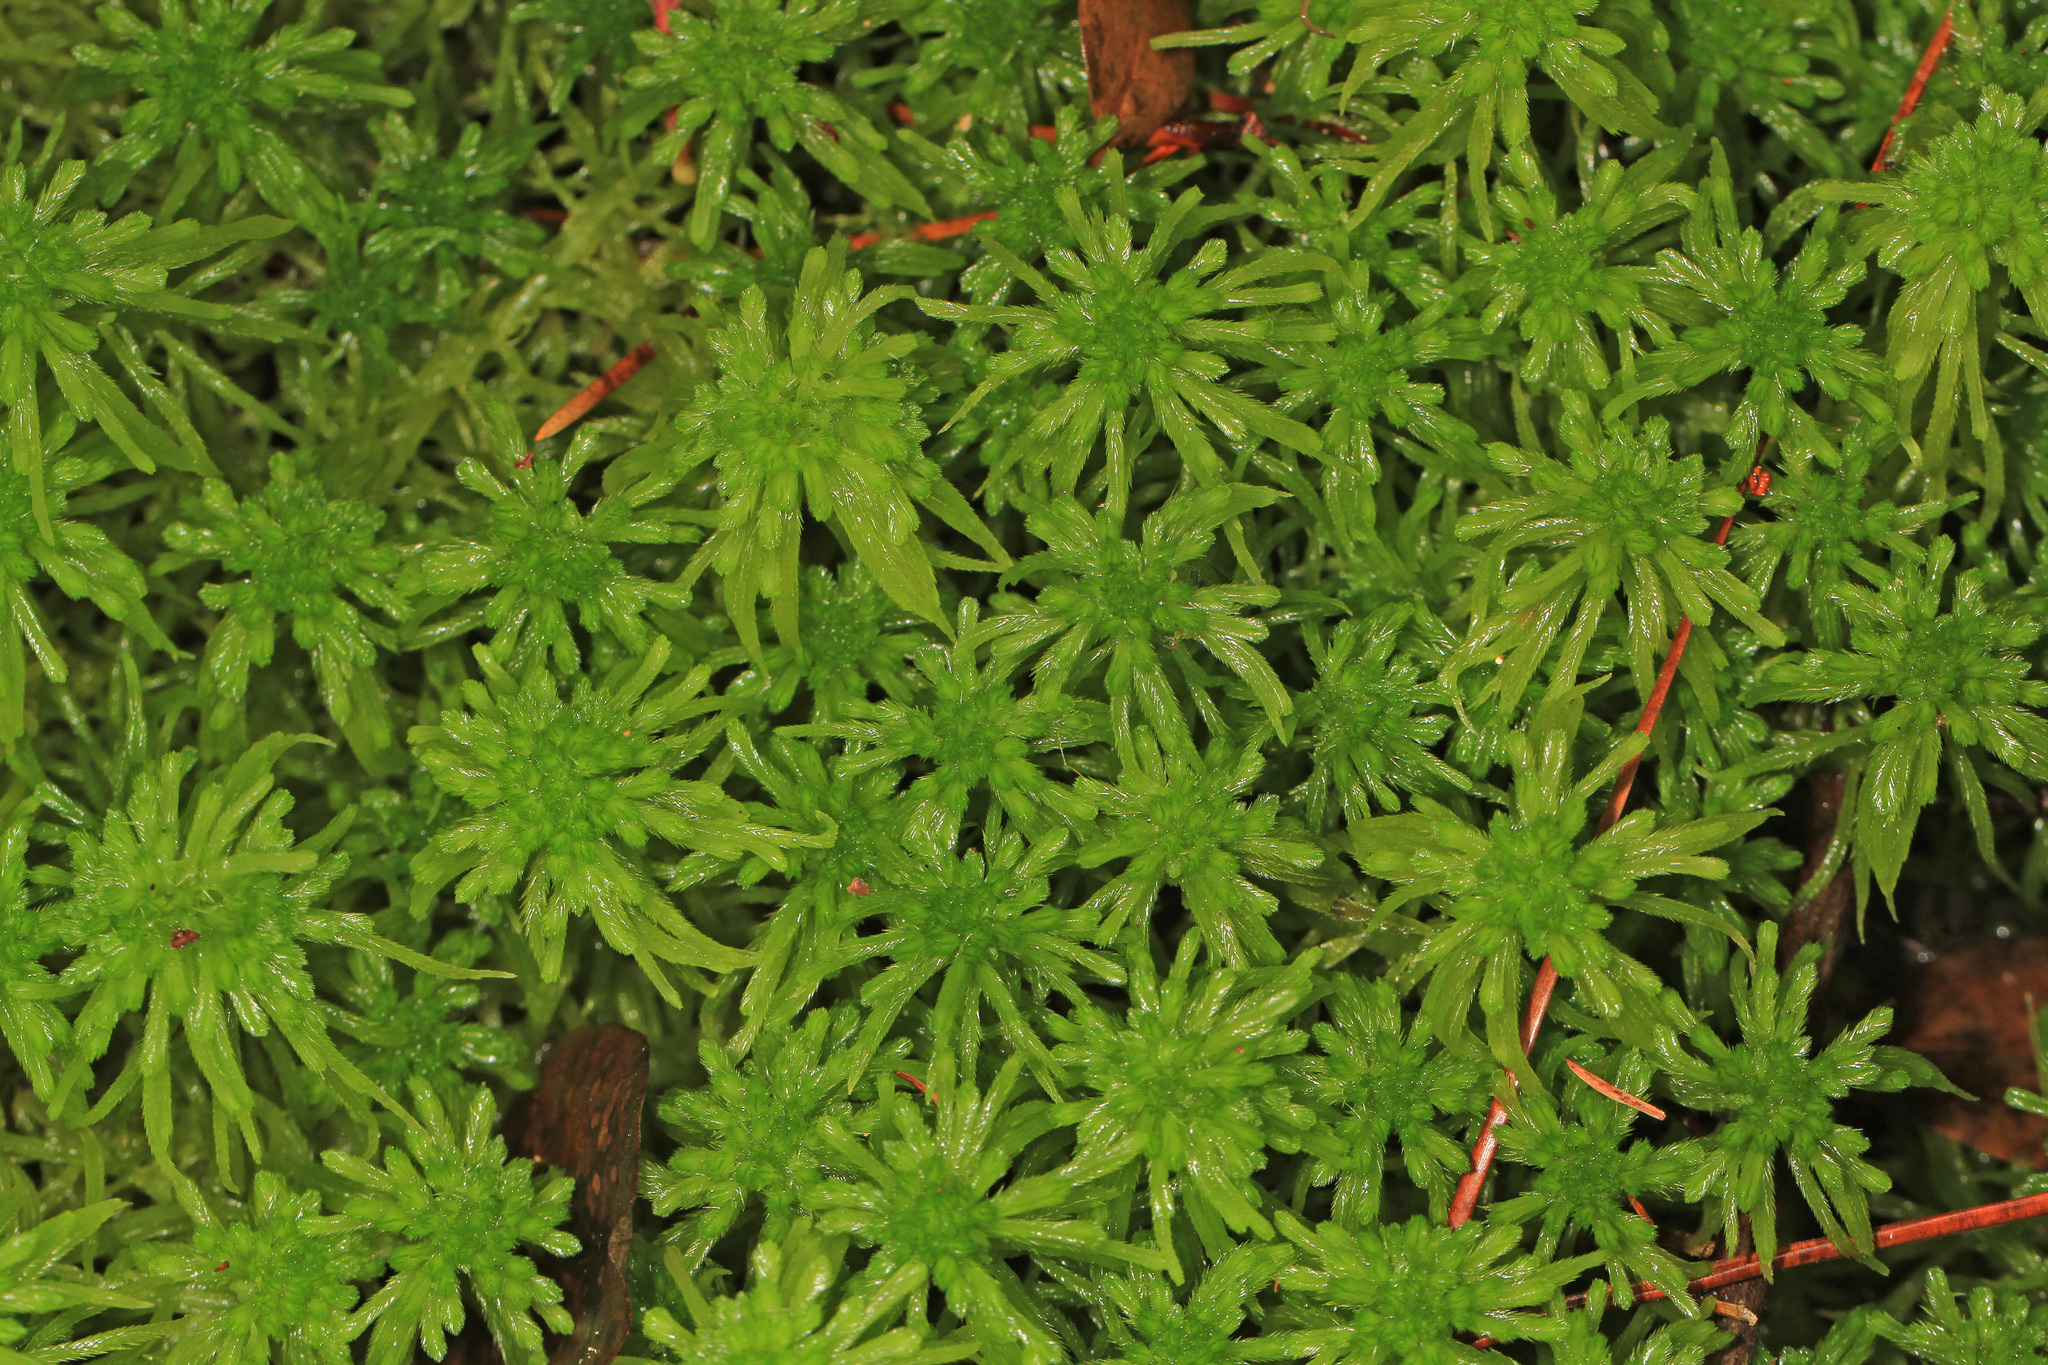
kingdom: Plantae
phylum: Bryophyta
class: Sphagnopsida
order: Sphagnales
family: Sphagnaceae
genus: Sphagnum
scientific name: Sphagnum recurvum
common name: Recurved peatmoss
